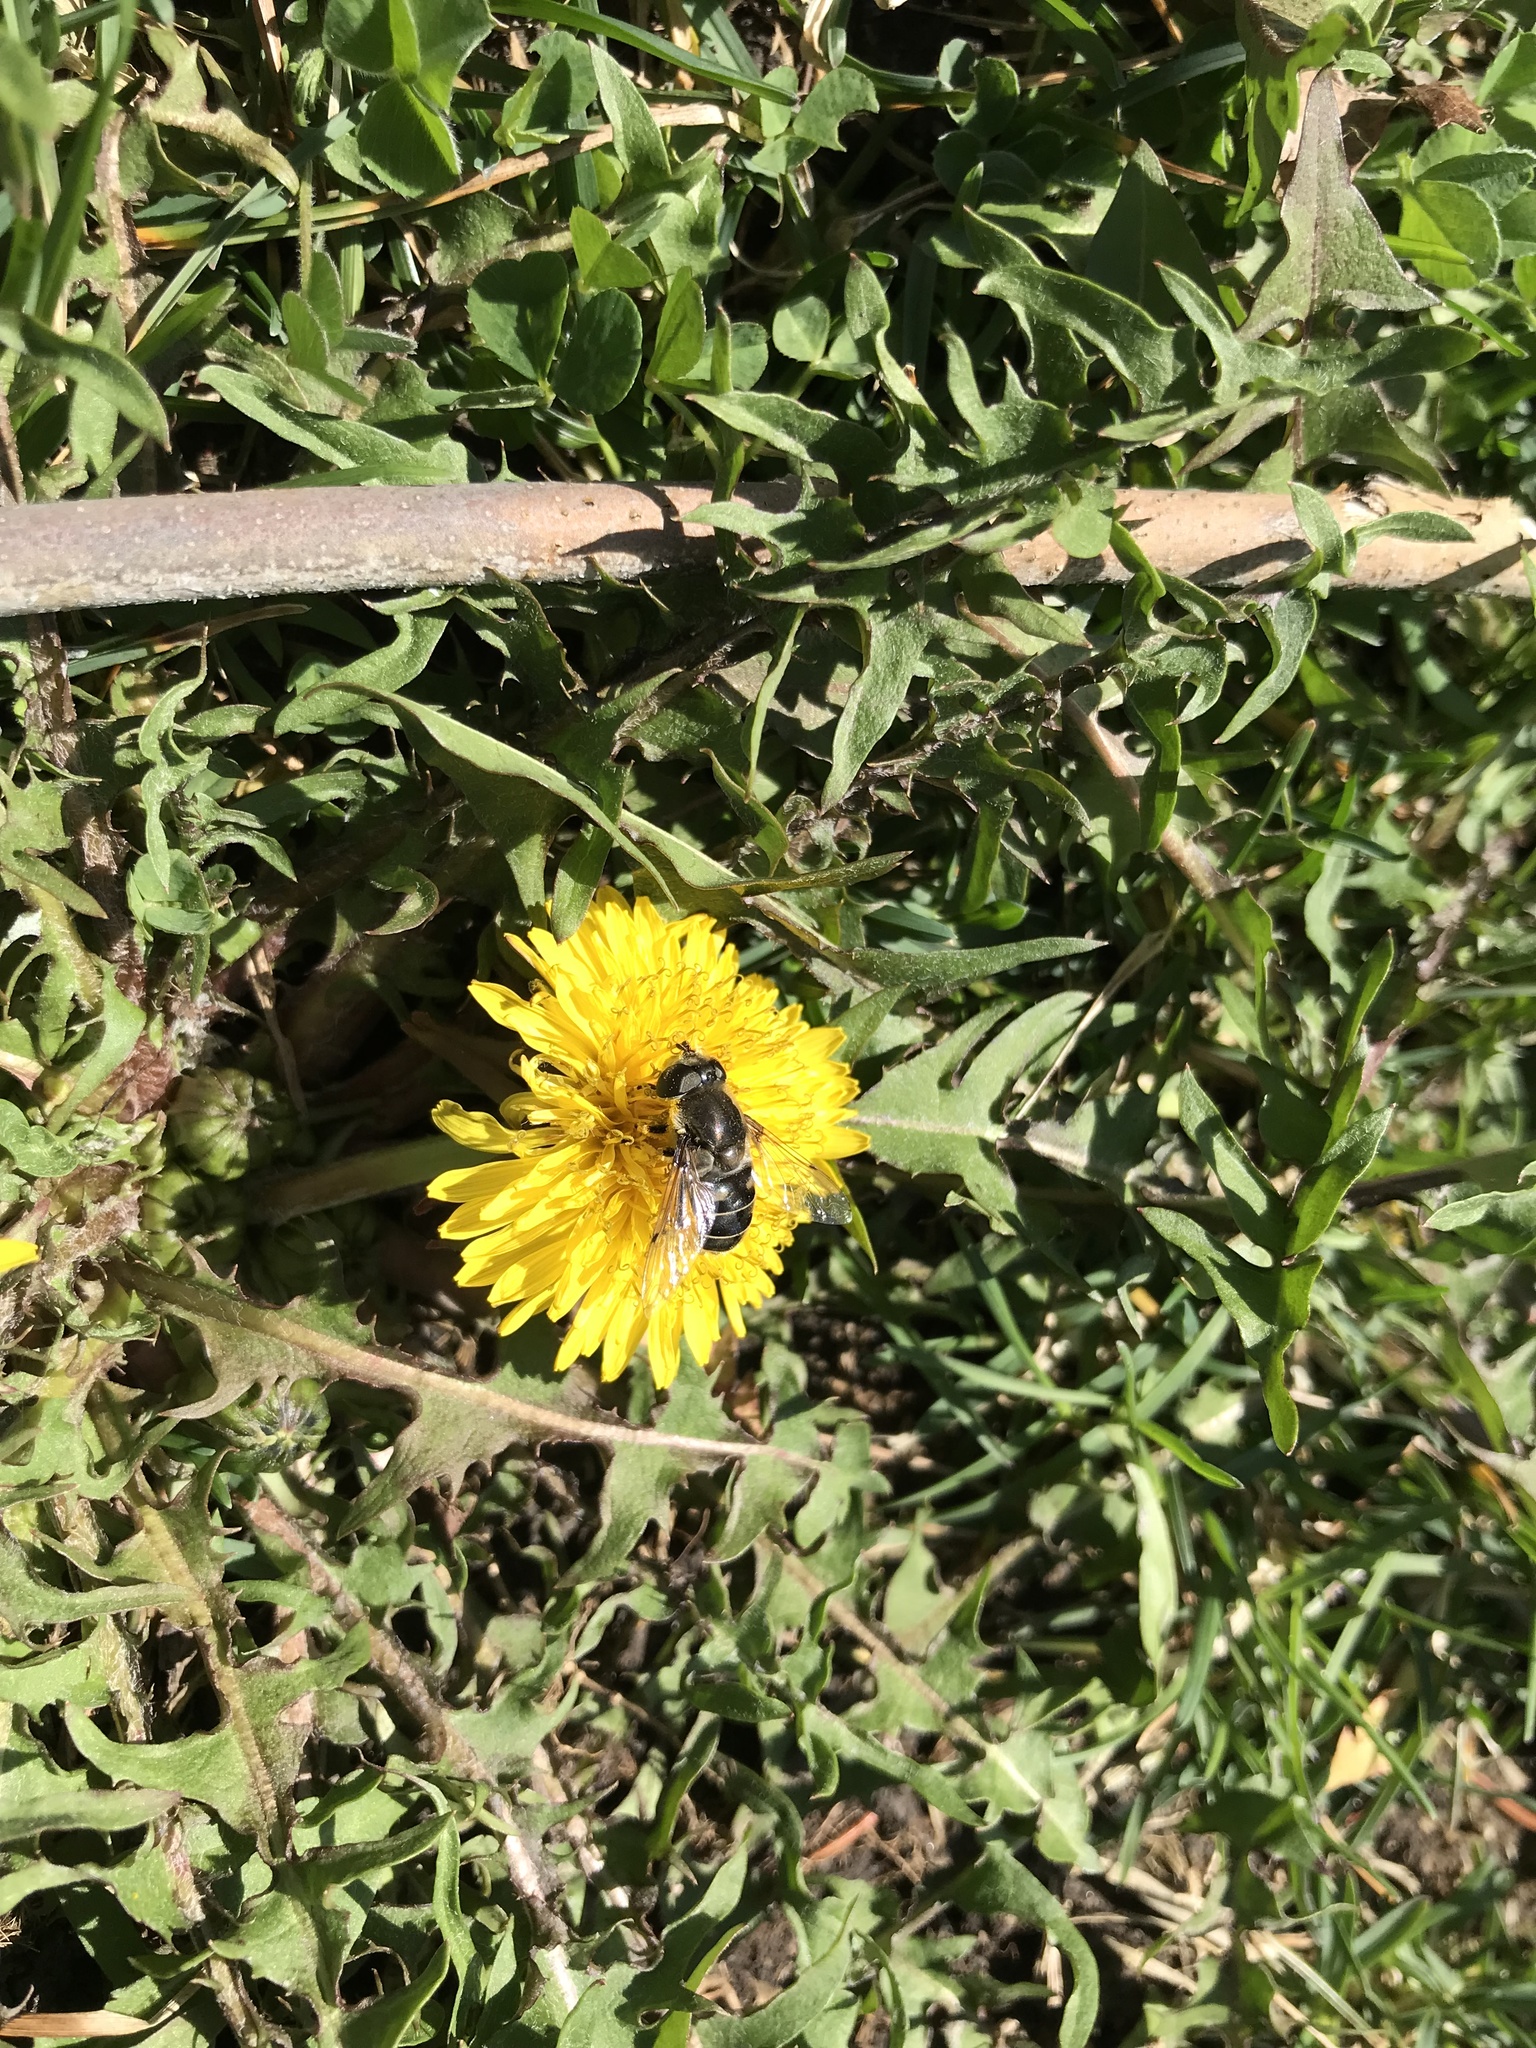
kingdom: Animalia
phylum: Arthropoda
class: Insecta
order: Diptera
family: Syrphidae
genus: Eristalis
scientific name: Eristalis dimidiata
